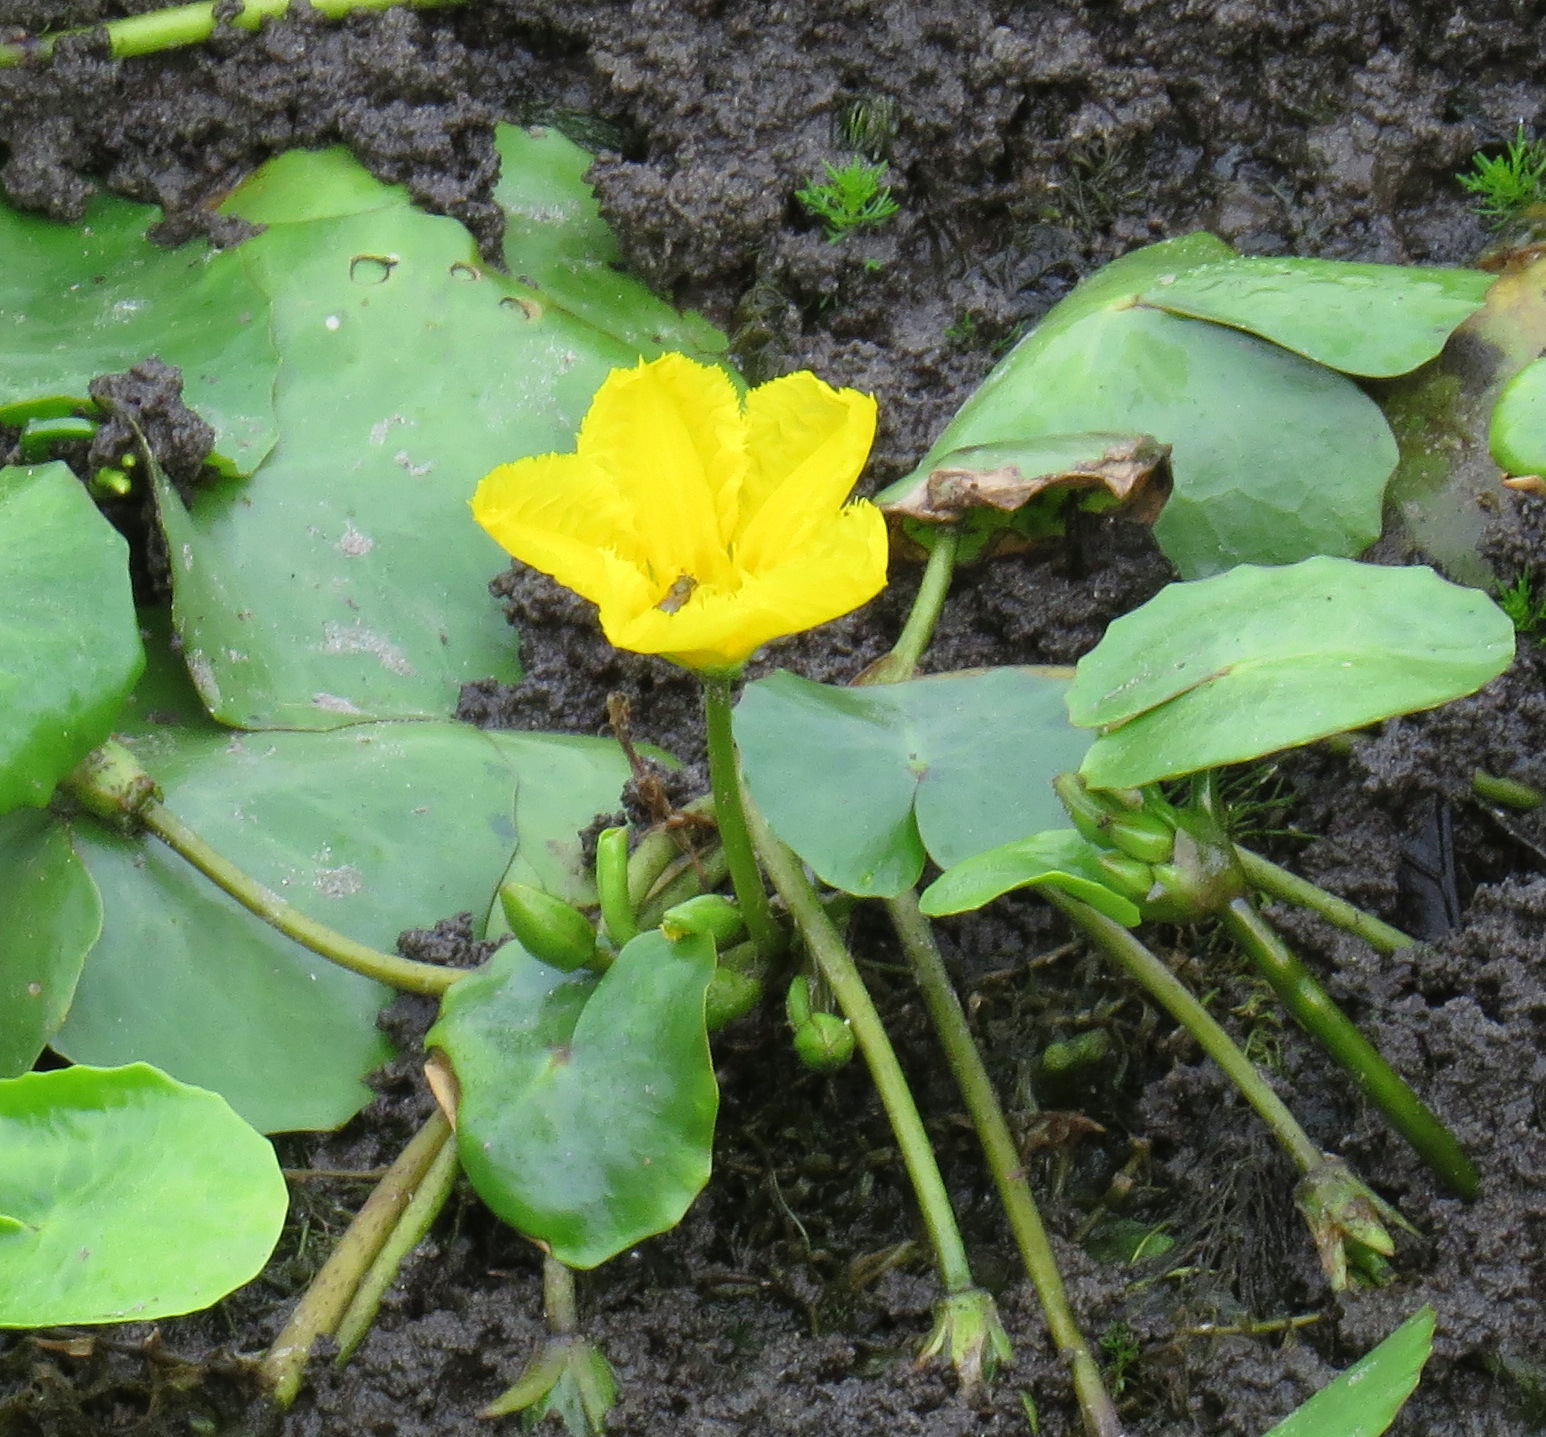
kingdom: Plantae
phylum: Tracheophyta
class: Magnoliopsida
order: Asterales
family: Menyanthaceae
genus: Nymphoides
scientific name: Nymphoides peltata
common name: Fringed water-lily
